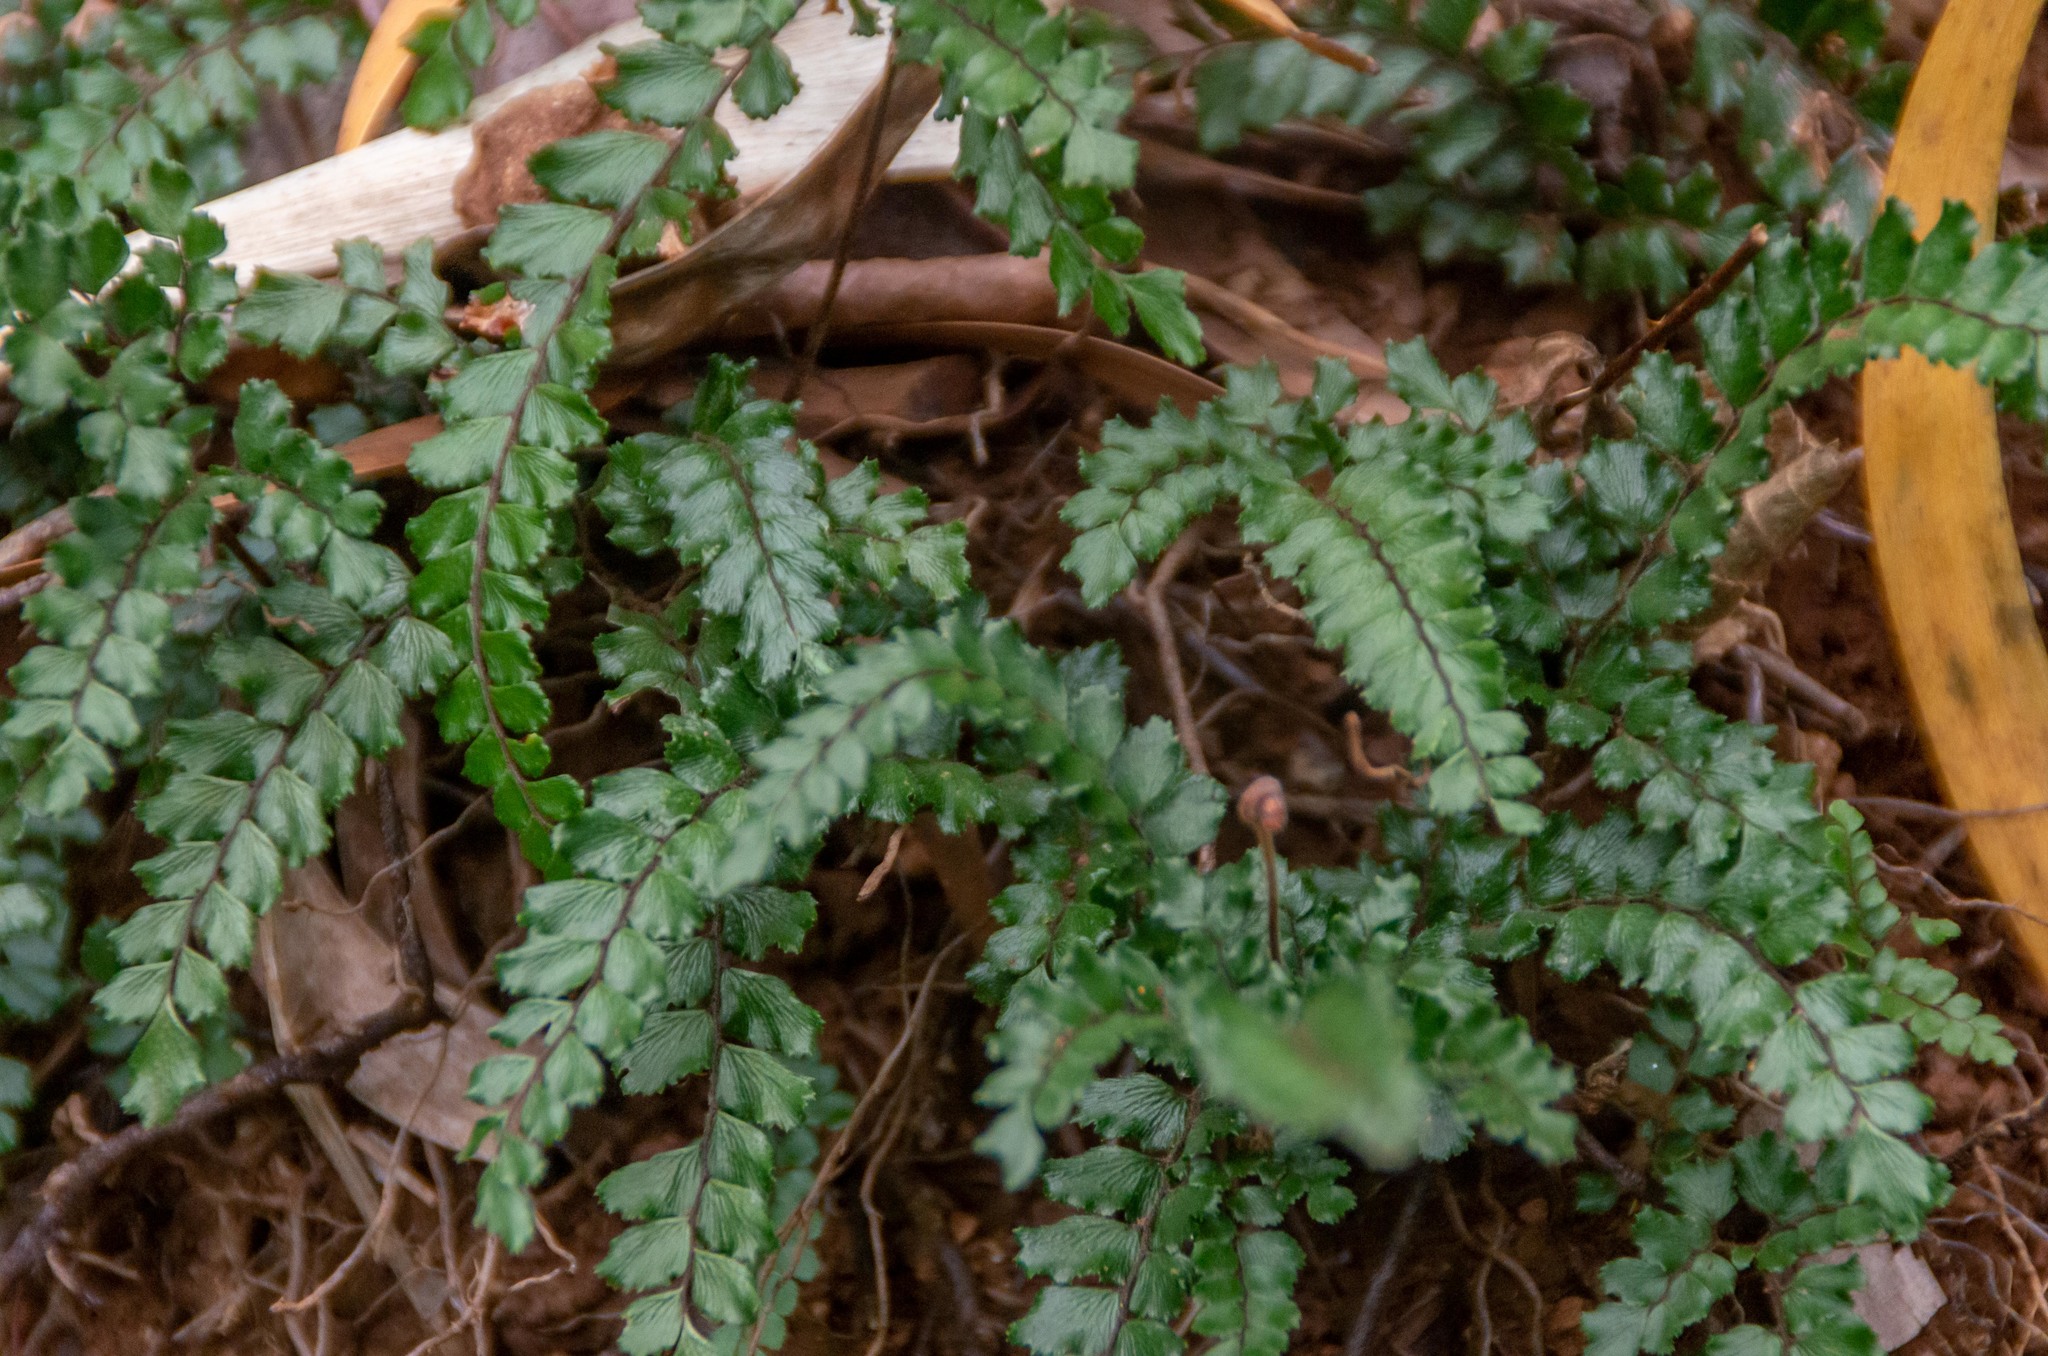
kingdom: Plantae
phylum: Tracheophyta
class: Polypodiopsida
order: Polypodiales
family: Pteridaceae
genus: Adiantum
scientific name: Adiantum hispidulum
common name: Rough maidenhair
